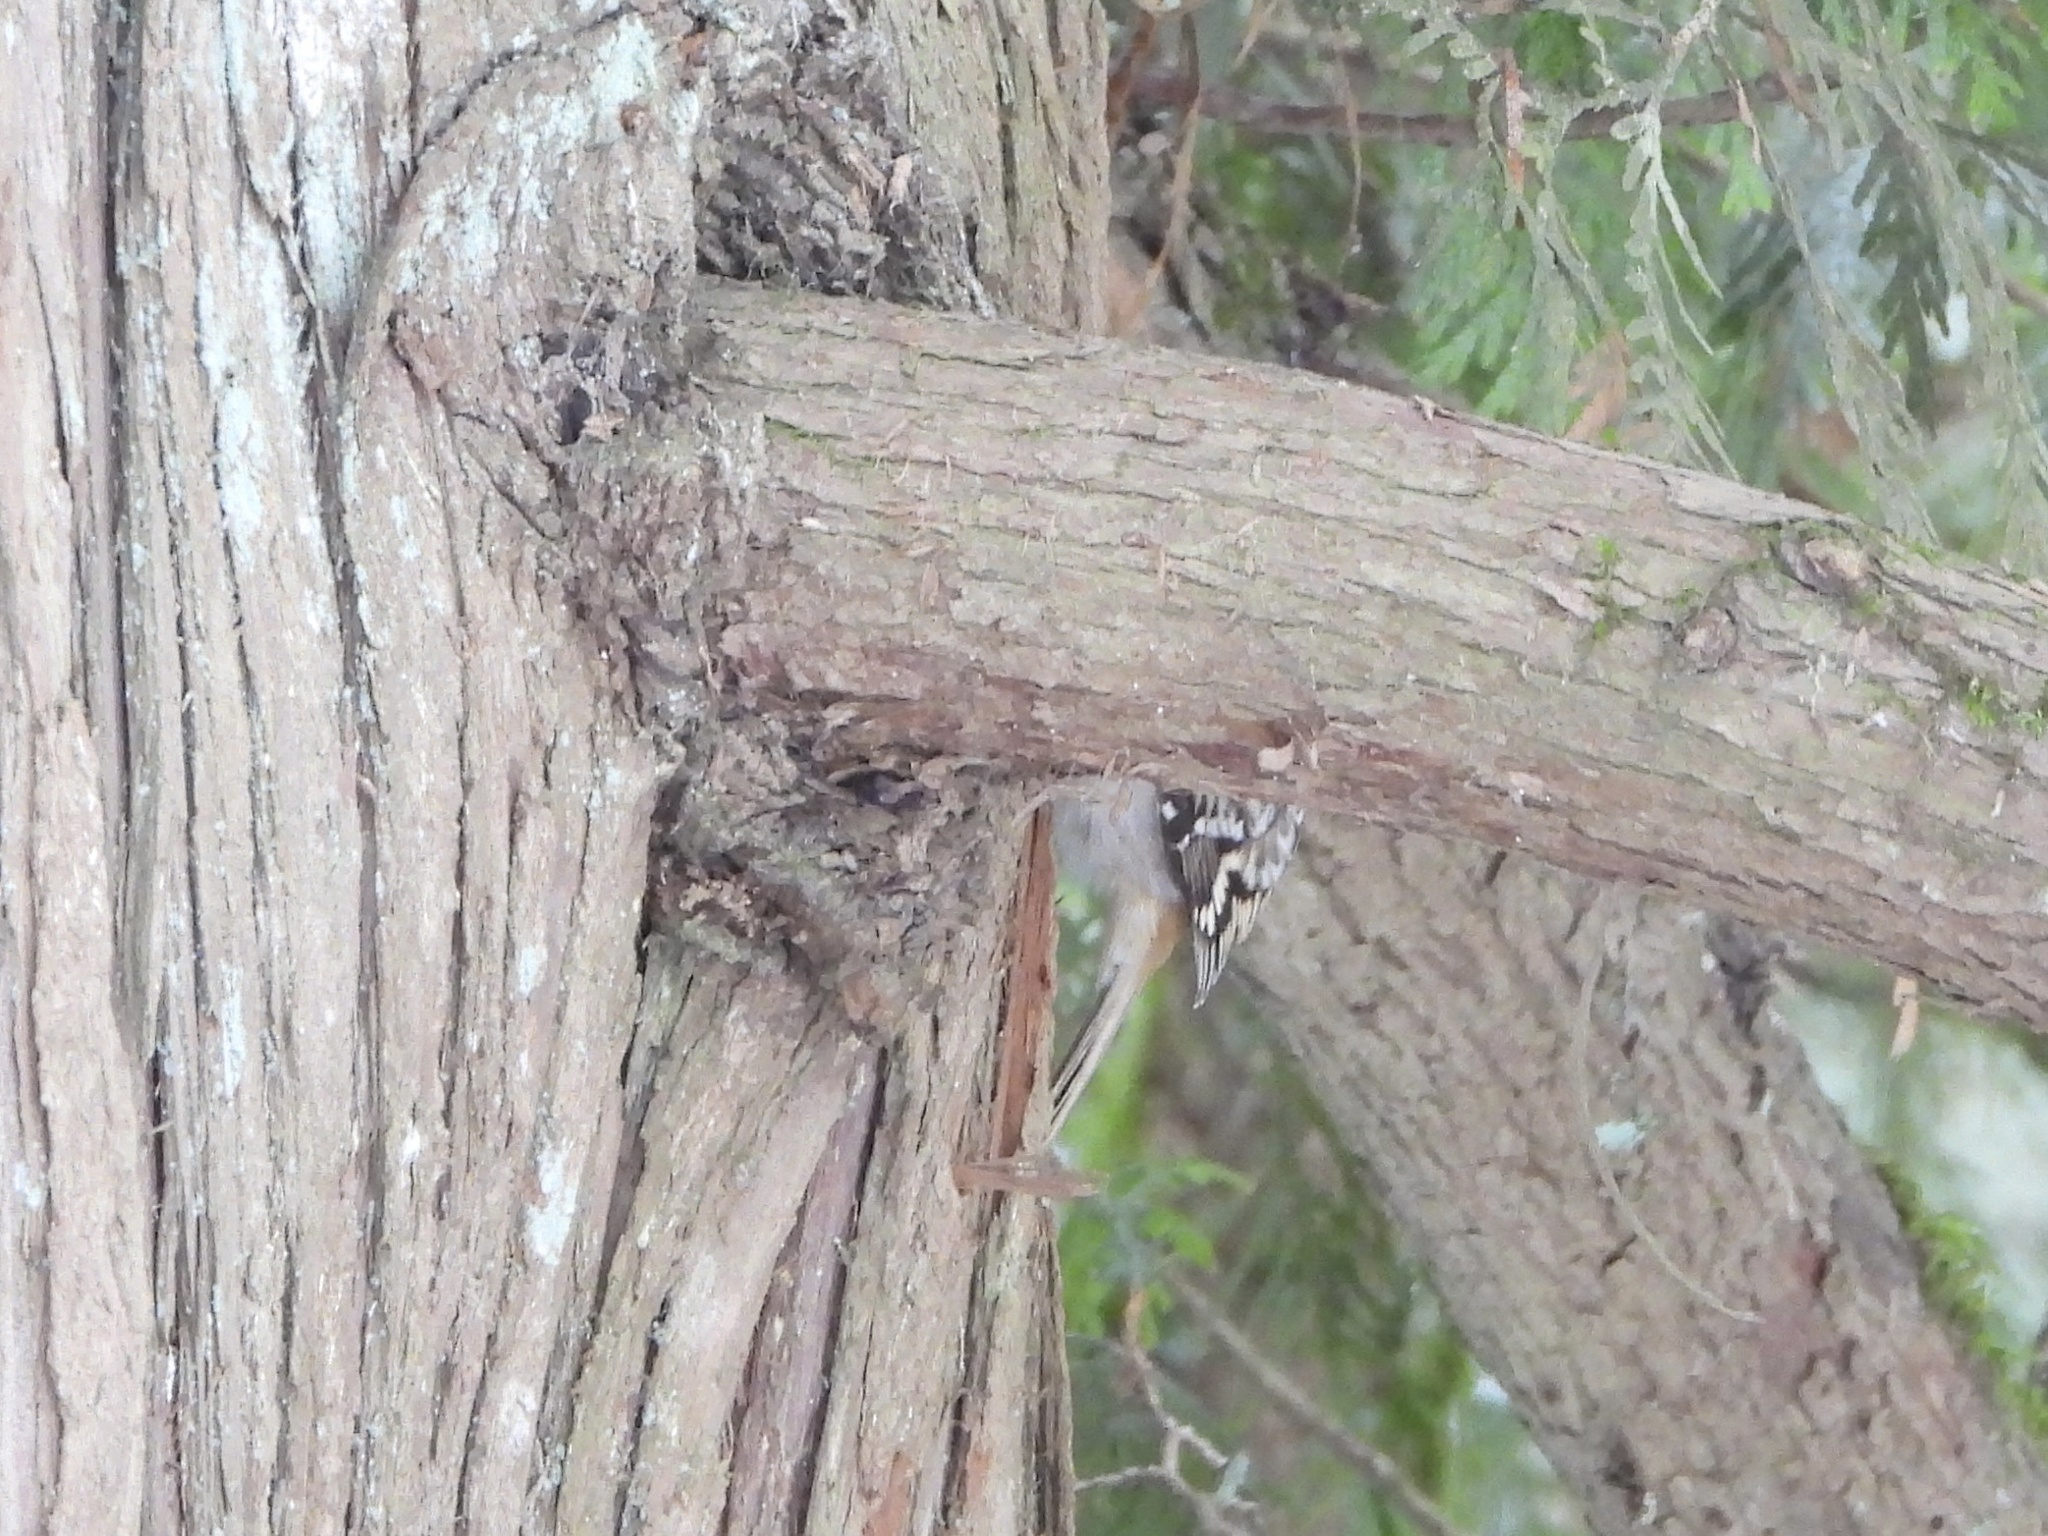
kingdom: Animalia
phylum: Chordata
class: Aves
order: Passeriformes
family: Certhiidae
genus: Certhia
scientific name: Certhia americana
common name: Brown creeper
